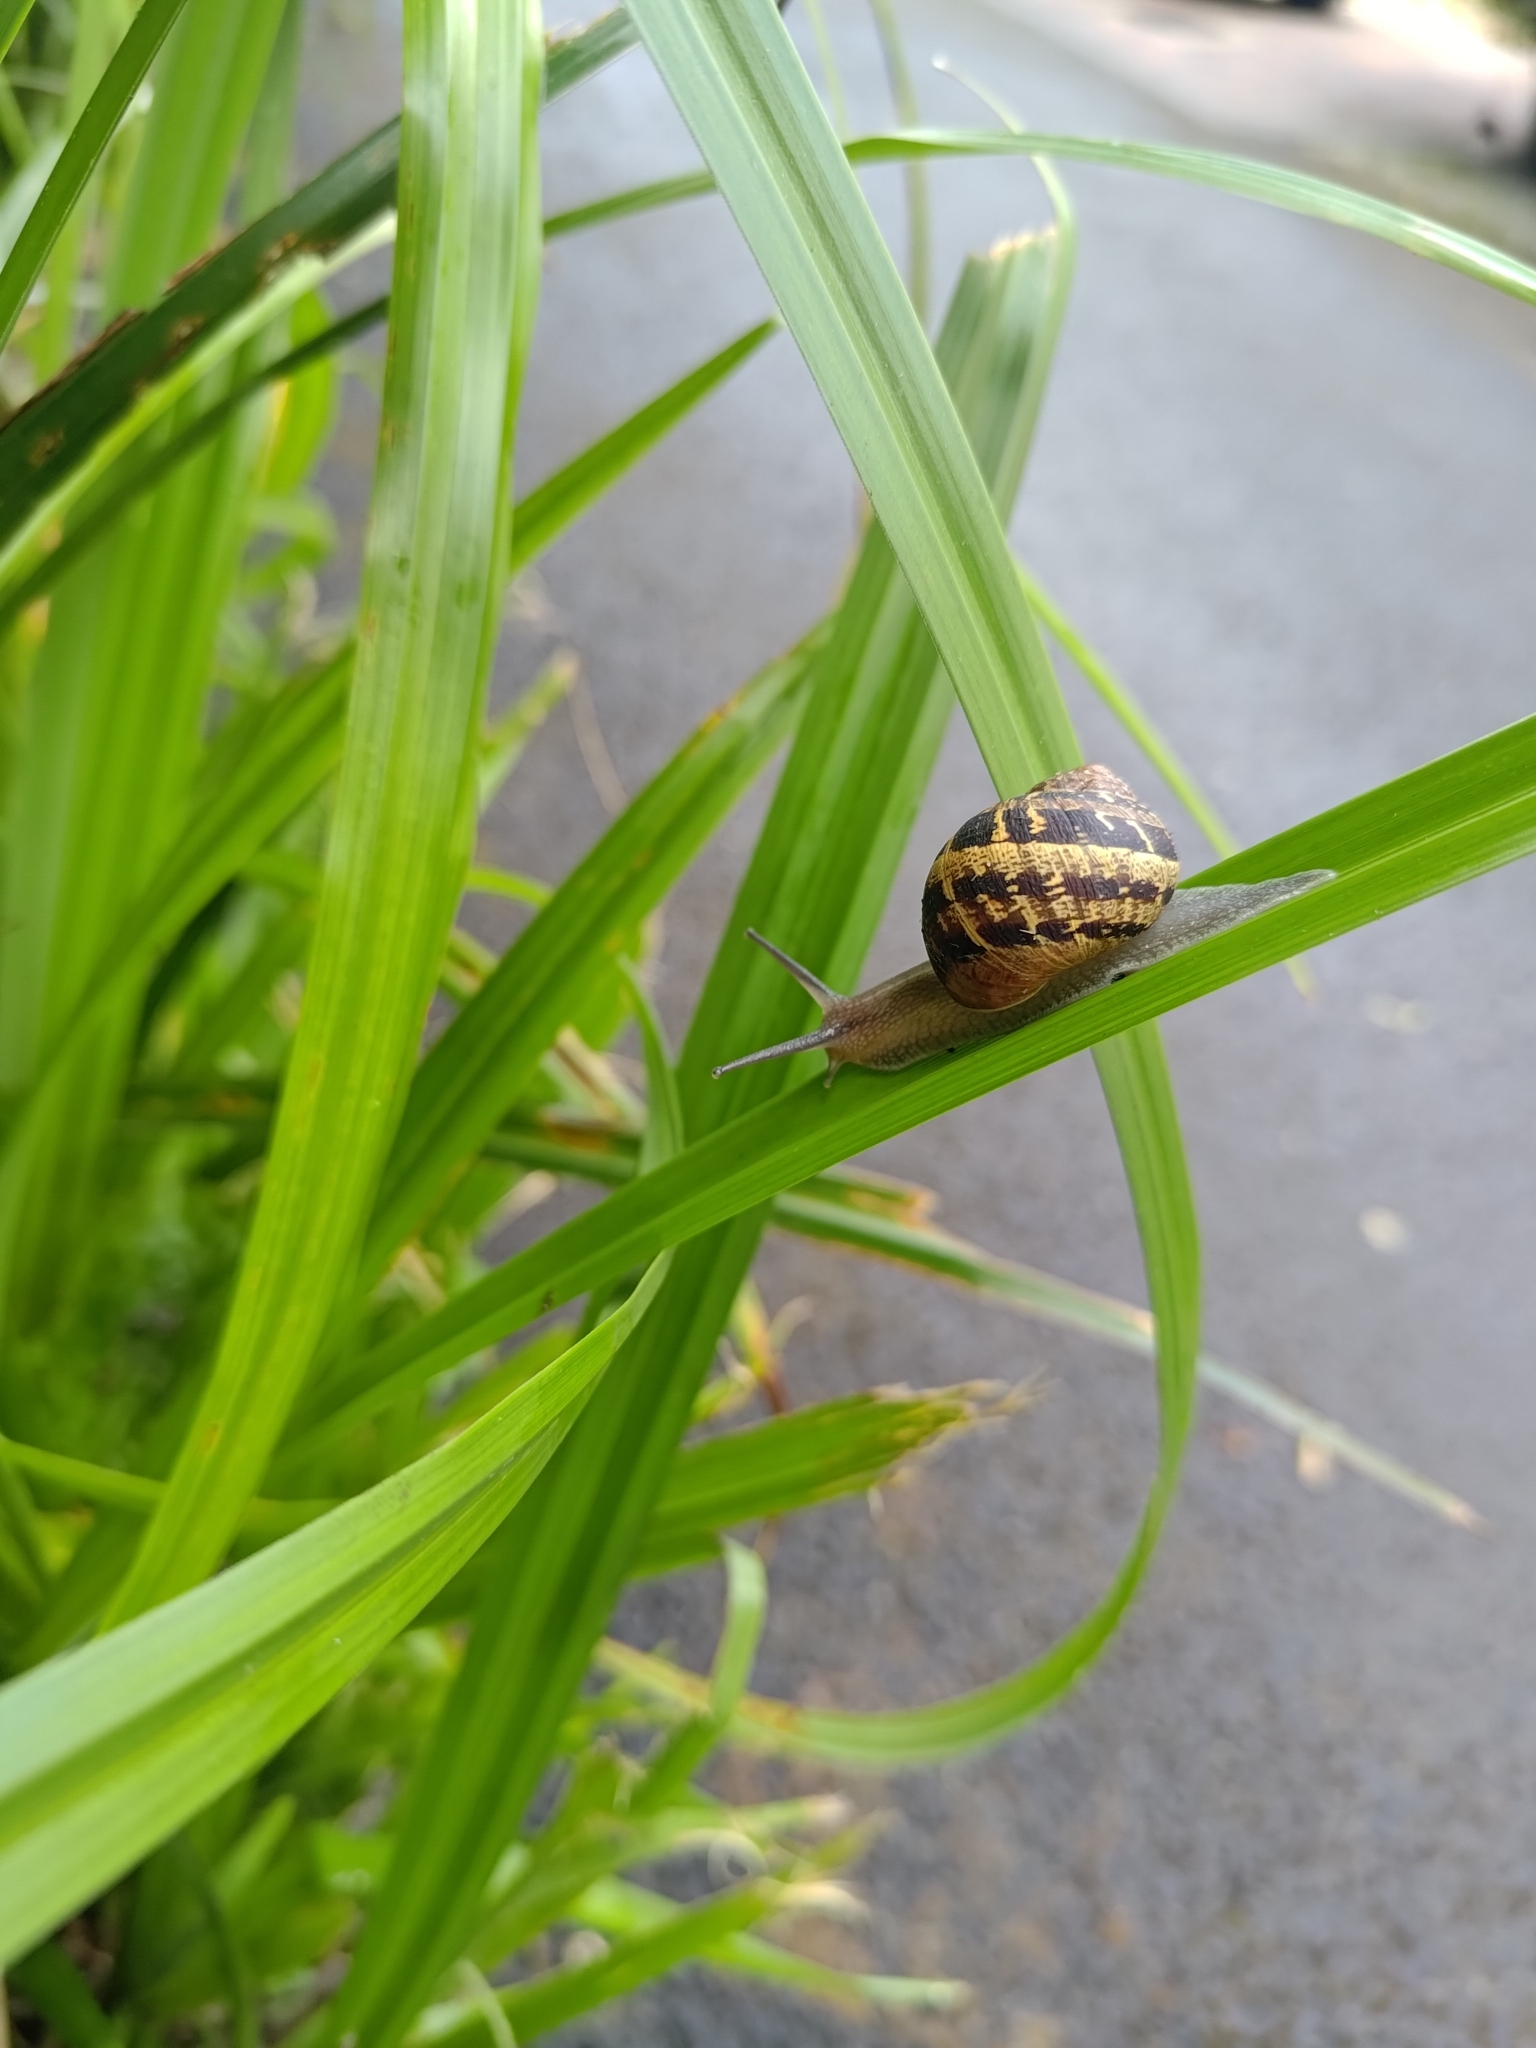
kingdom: Animalia
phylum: Mollusca
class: Gastropoda
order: Stylommatophora
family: Helicidae
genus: Cornu
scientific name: Cornu aspersum
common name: Brown garden snail
